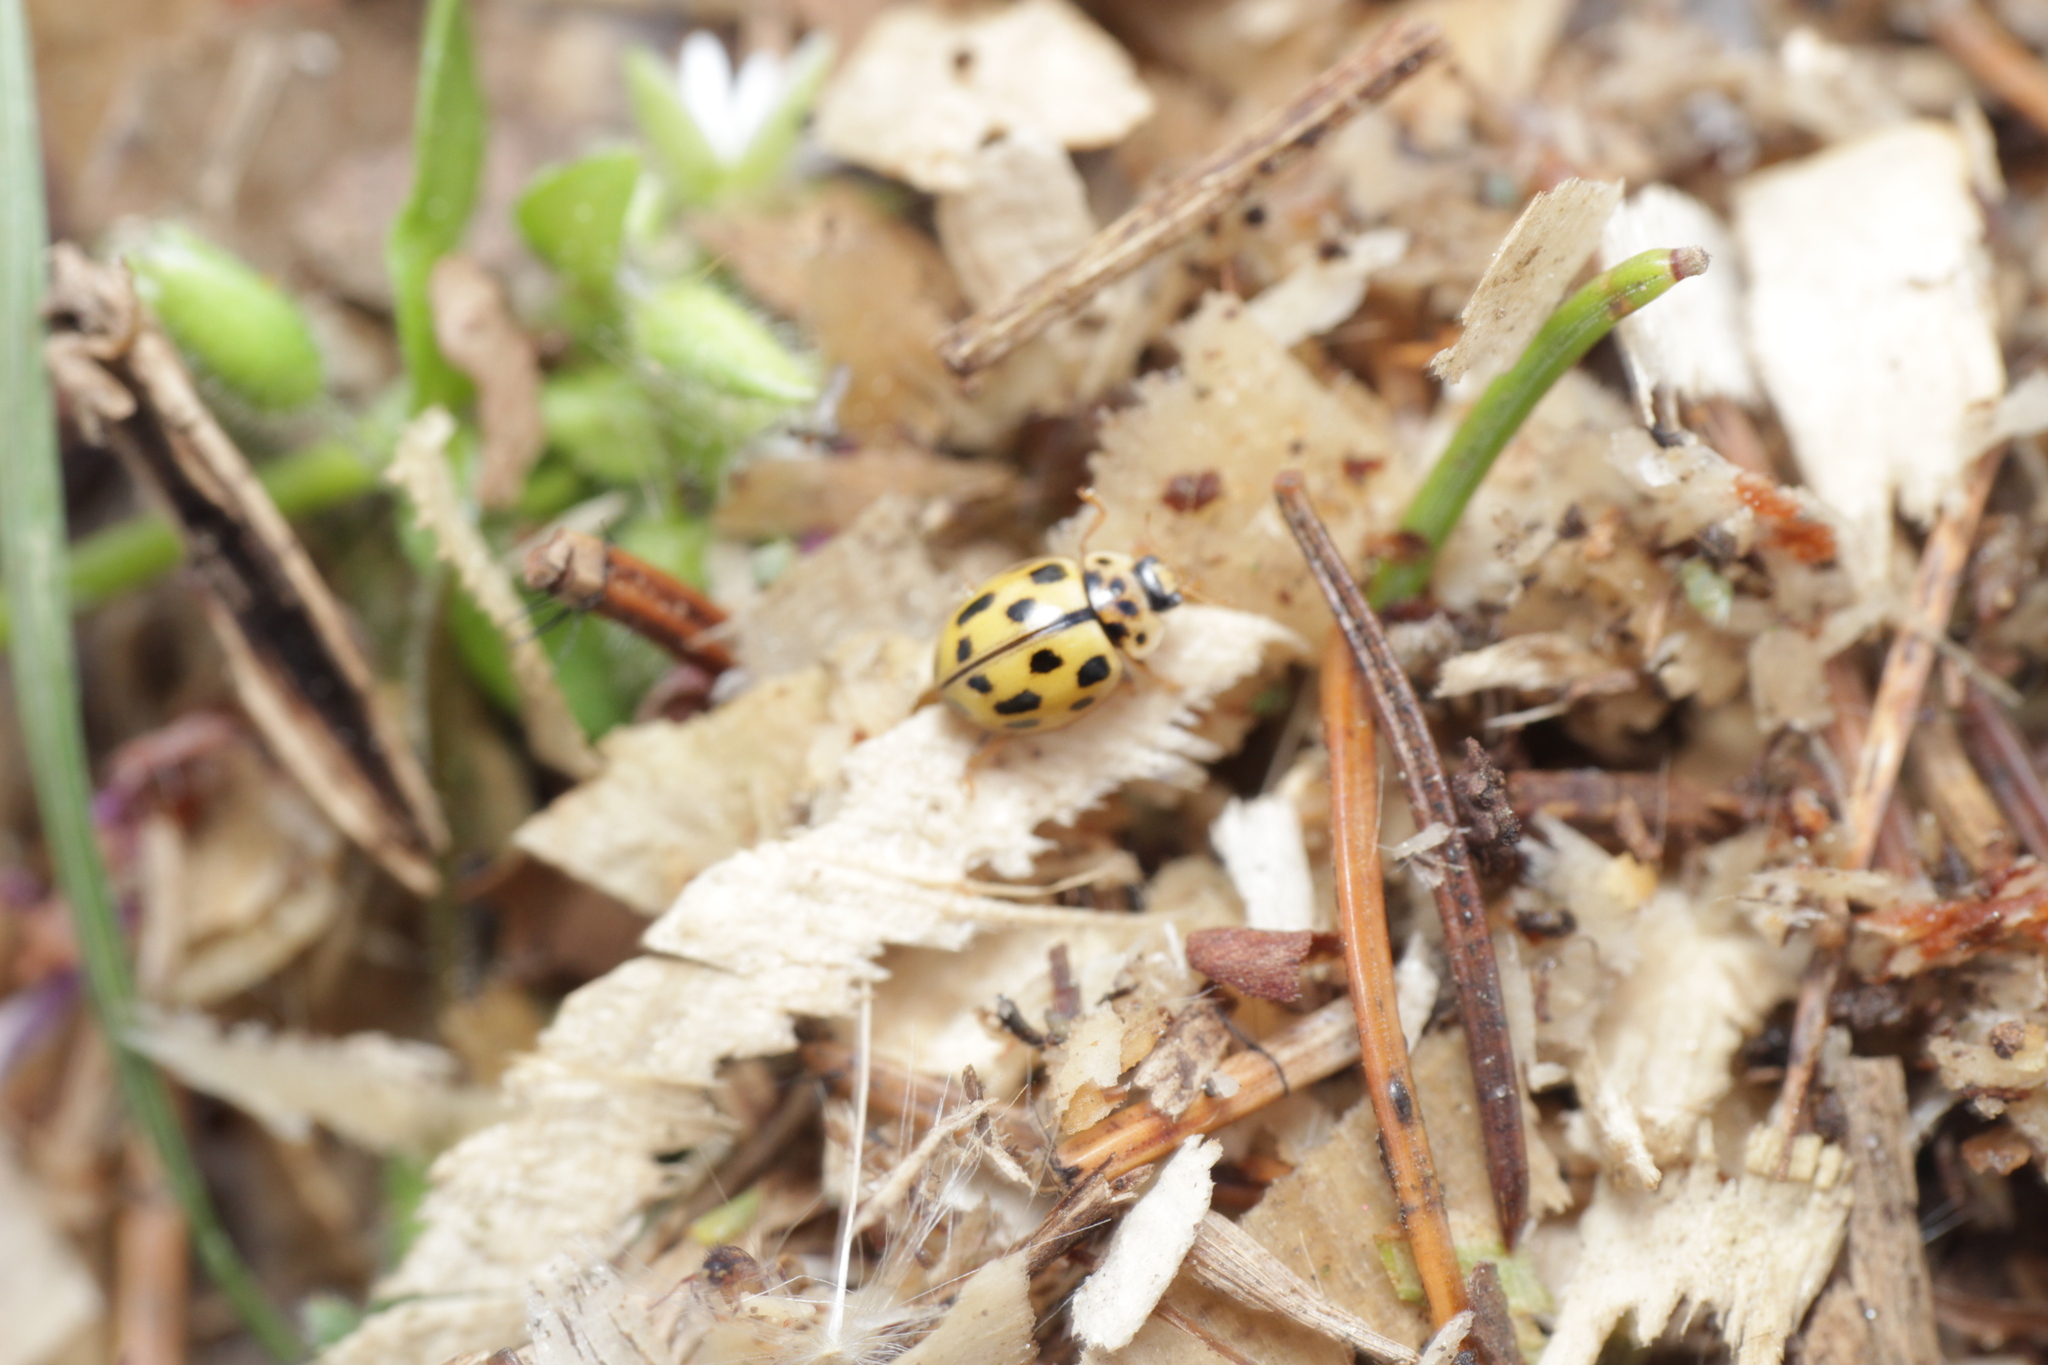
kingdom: Animalia
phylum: Arthropoda
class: Insecta
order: Coleoptera
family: Coccinellidae
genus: Propylaea
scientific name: Propylaea quatuordecimpunctata
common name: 14-spotted ladybird beetle
